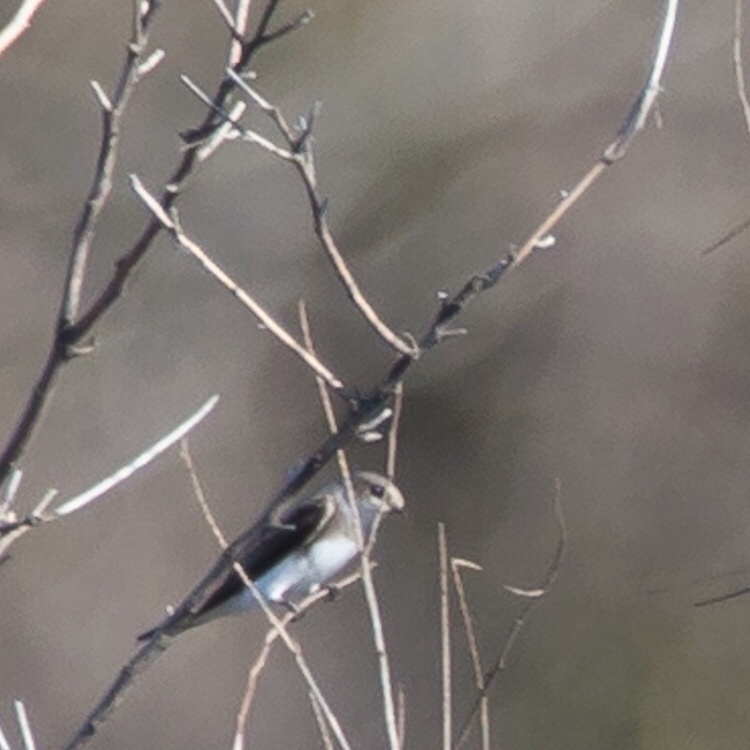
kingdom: Animalia
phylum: Chordata
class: Aves
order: Passeriformes
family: Hirundinidae
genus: Riparia
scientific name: Riparia riparia
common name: Sand martin
